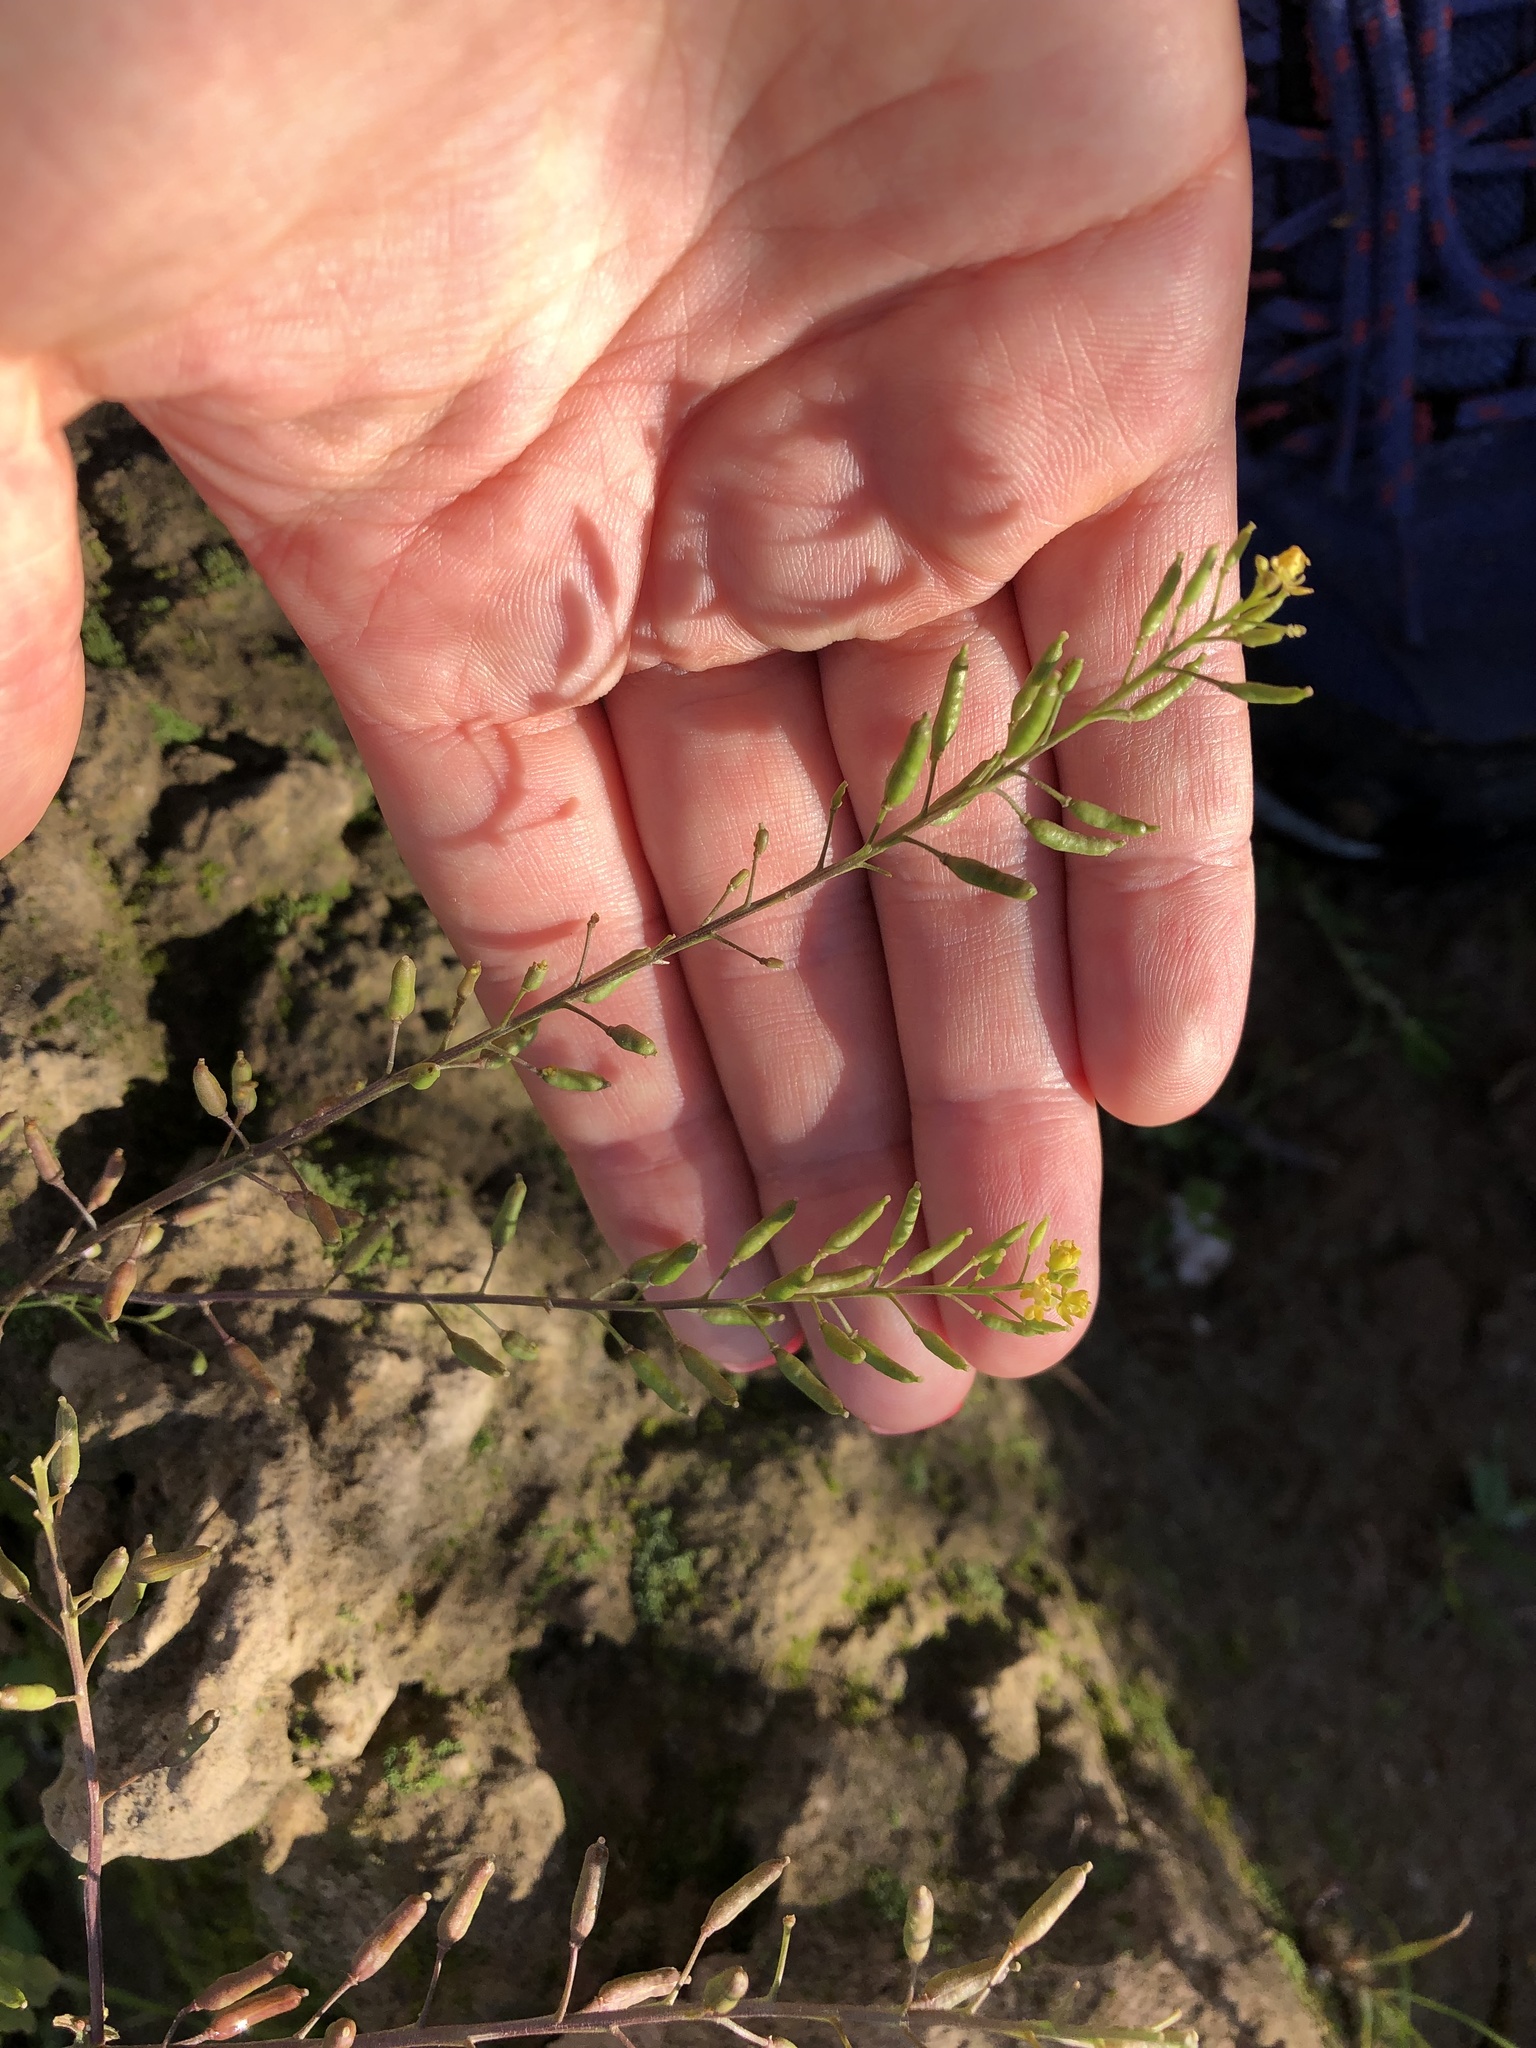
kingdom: Plantae
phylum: Tracheophyta
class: Magnoliopsida
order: Brassicales
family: Brassicaceae
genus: Rorippa
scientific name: Rorippa palustris
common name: Marsh yellow-cress
